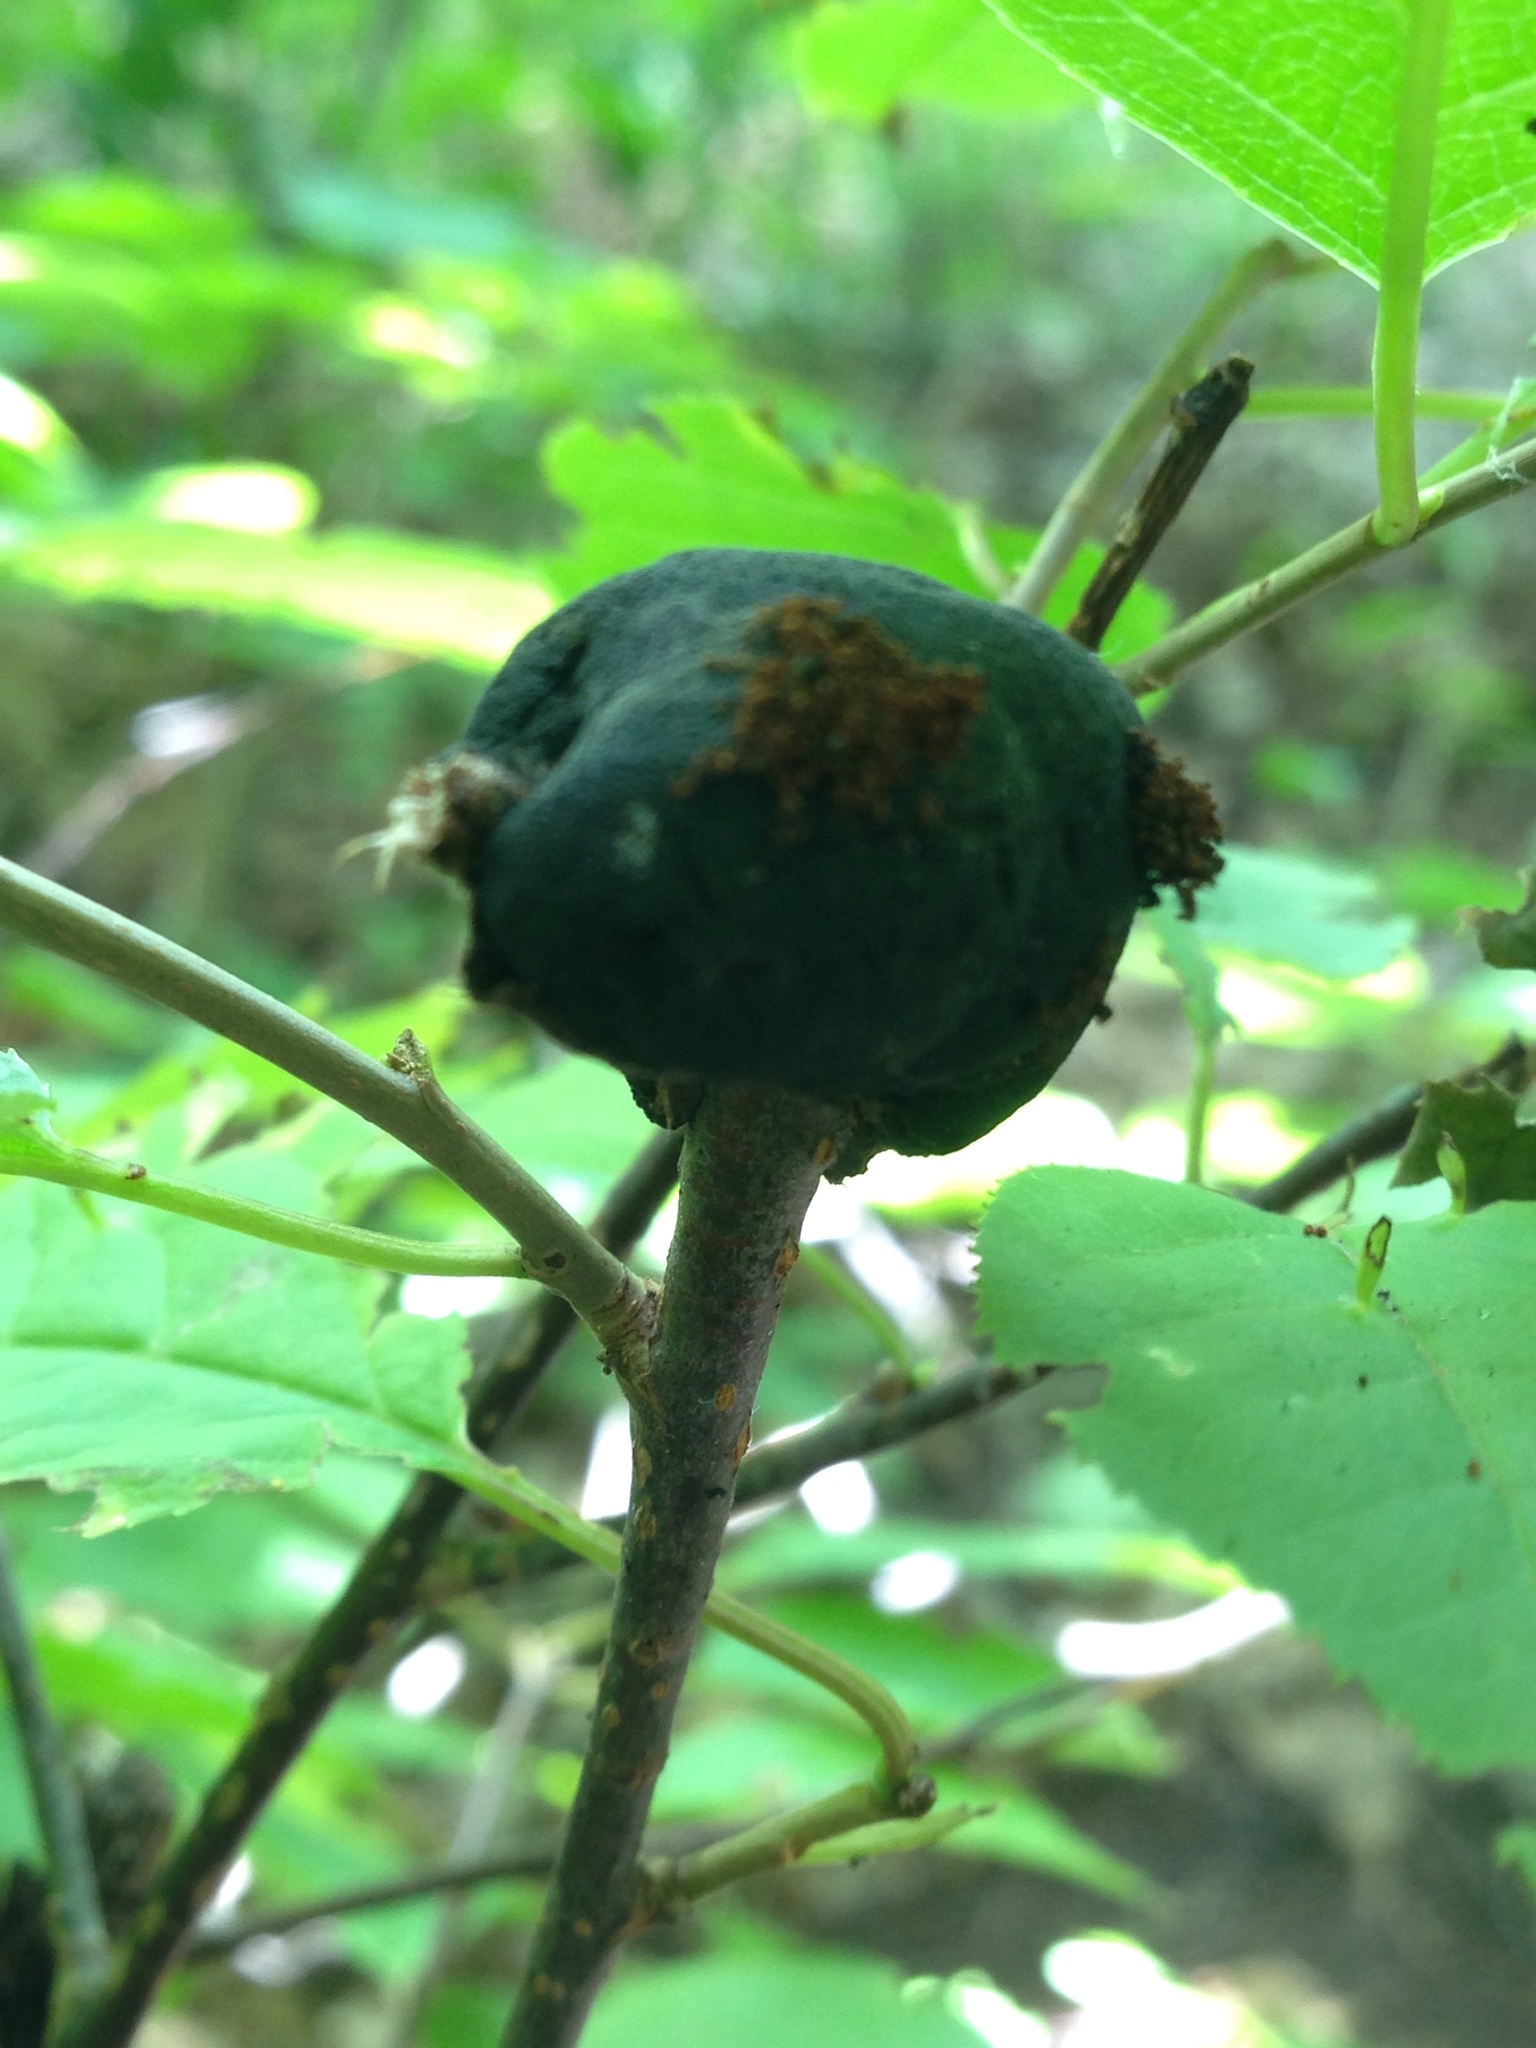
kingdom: Fungi
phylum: Ascomycota
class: Dothideomycetes
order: Venturiales
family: Venturiaceae
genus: Apiosporina
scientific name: Apiosporina morbosa
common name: Black knot
